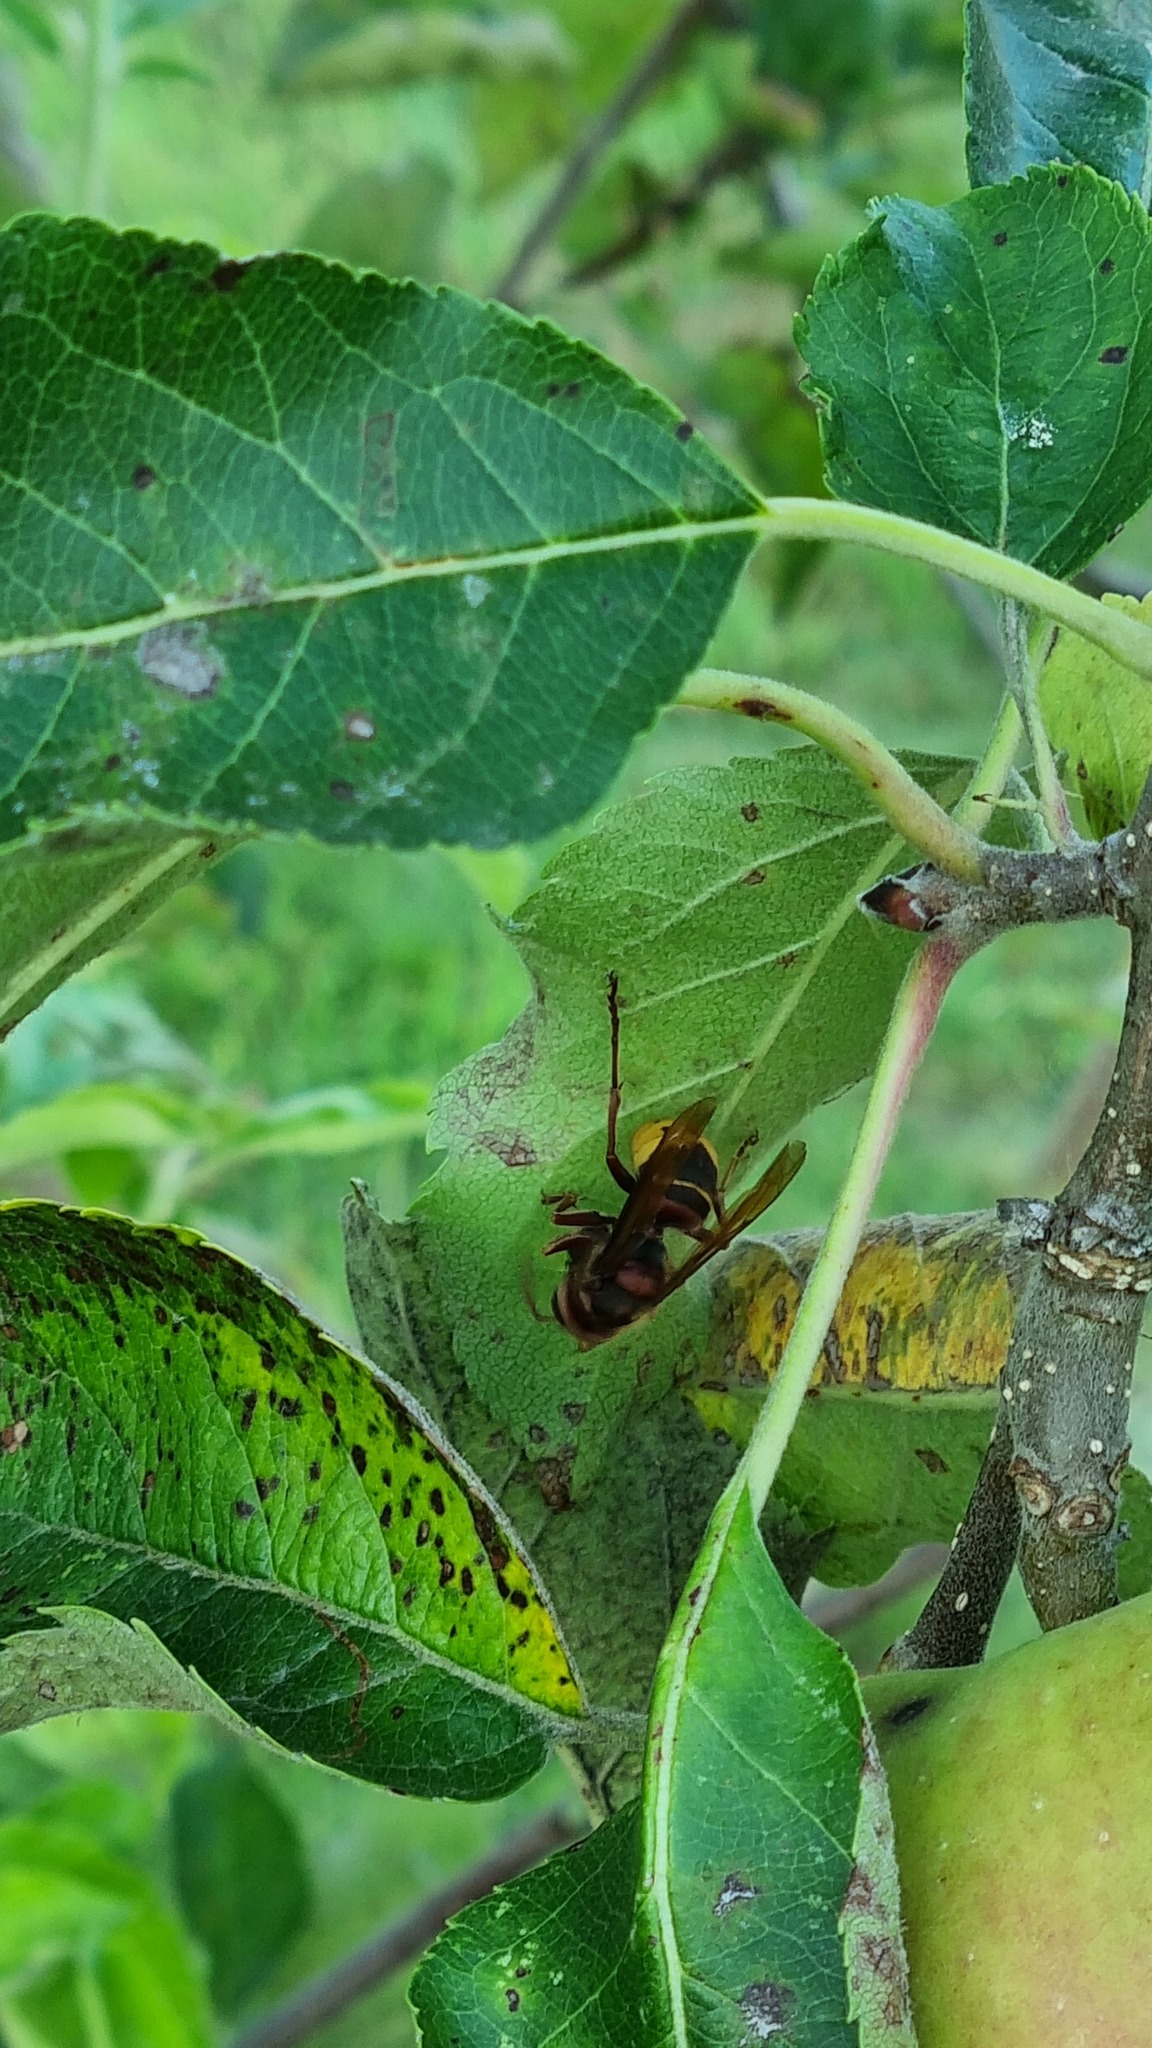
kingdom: Animalia
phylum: Arthropoda
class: Insecta
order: Hymenoptera
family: Vespidae
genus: Vespa
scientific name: Vespa crabro
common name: Hornet
